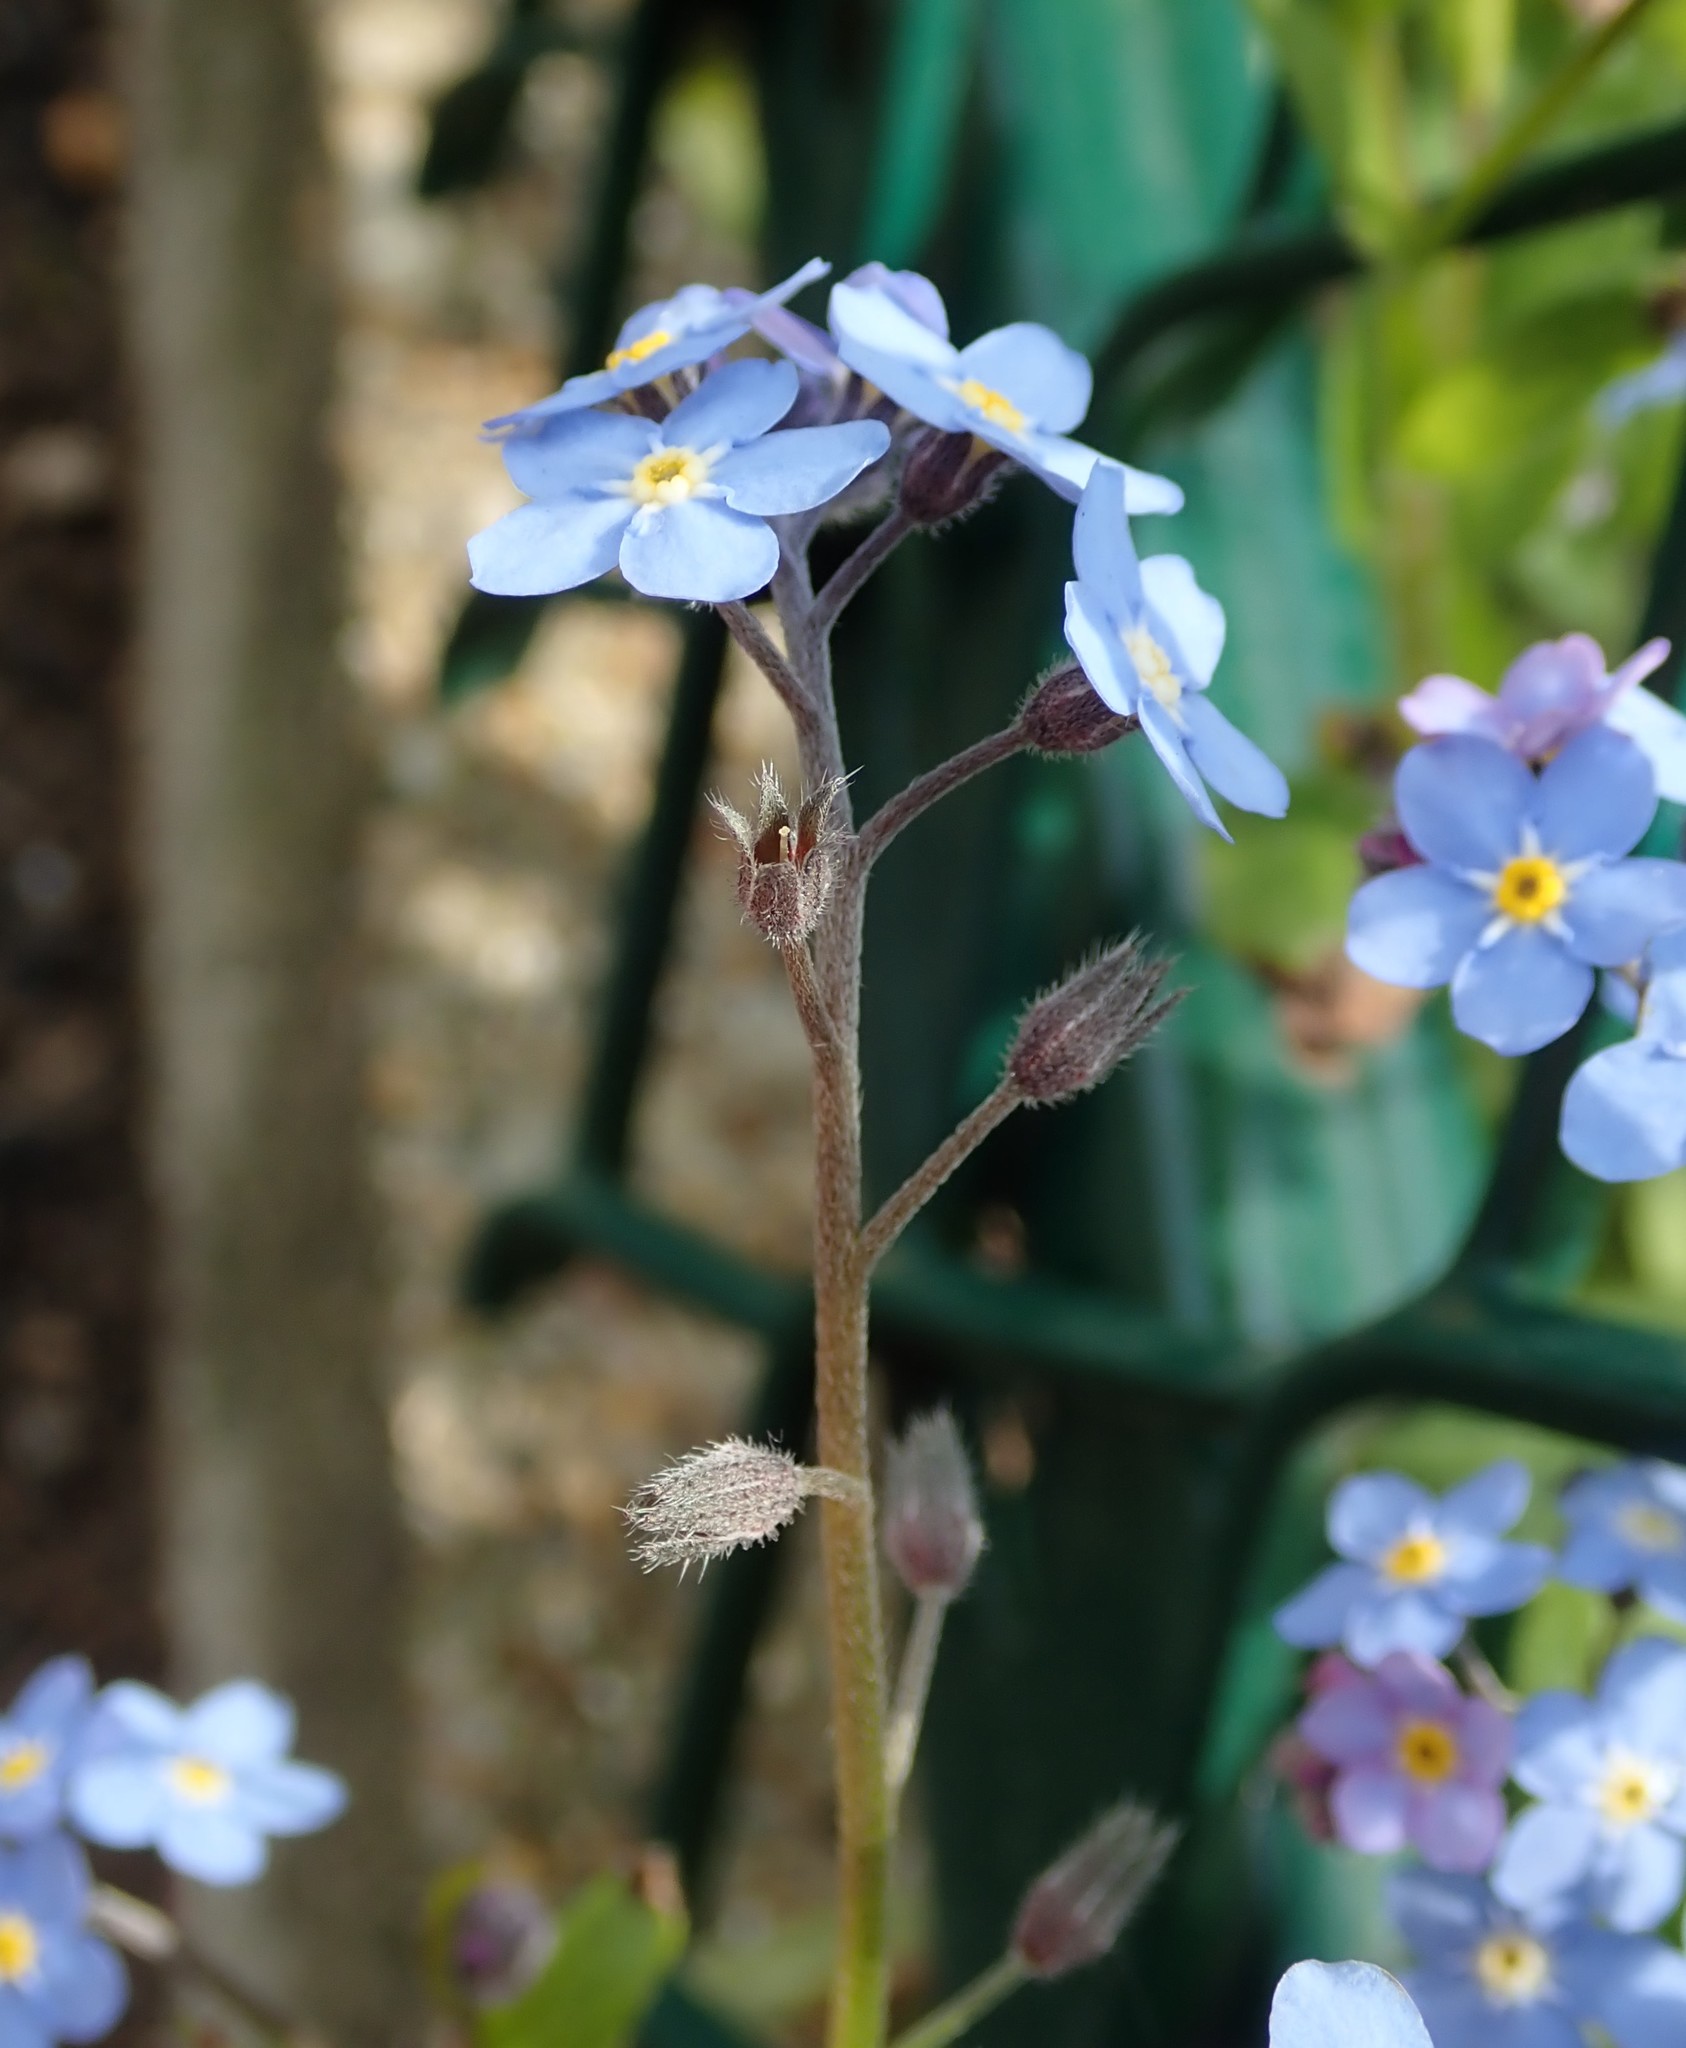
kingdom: Plantae
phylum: Tracheophyta
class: Magnoliopsida
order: Boraginales
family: Boraginaceae
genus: Myosotis
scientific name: Myosotis sylvatica
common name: Wood forget-me-not
